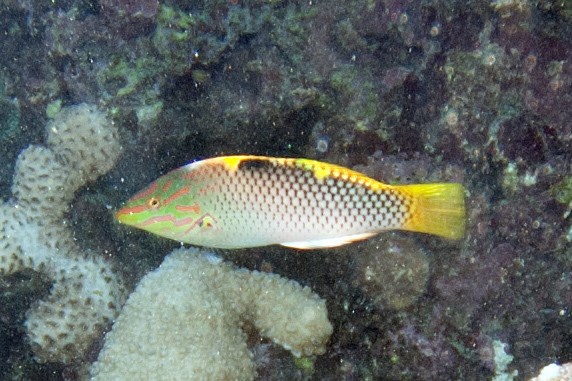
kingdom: Animalia
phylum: Chordata
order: Perciformes
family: Labridae
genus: Halichoeres
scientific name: Halichoeres hortulanus
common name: Checkerboard wrasse
